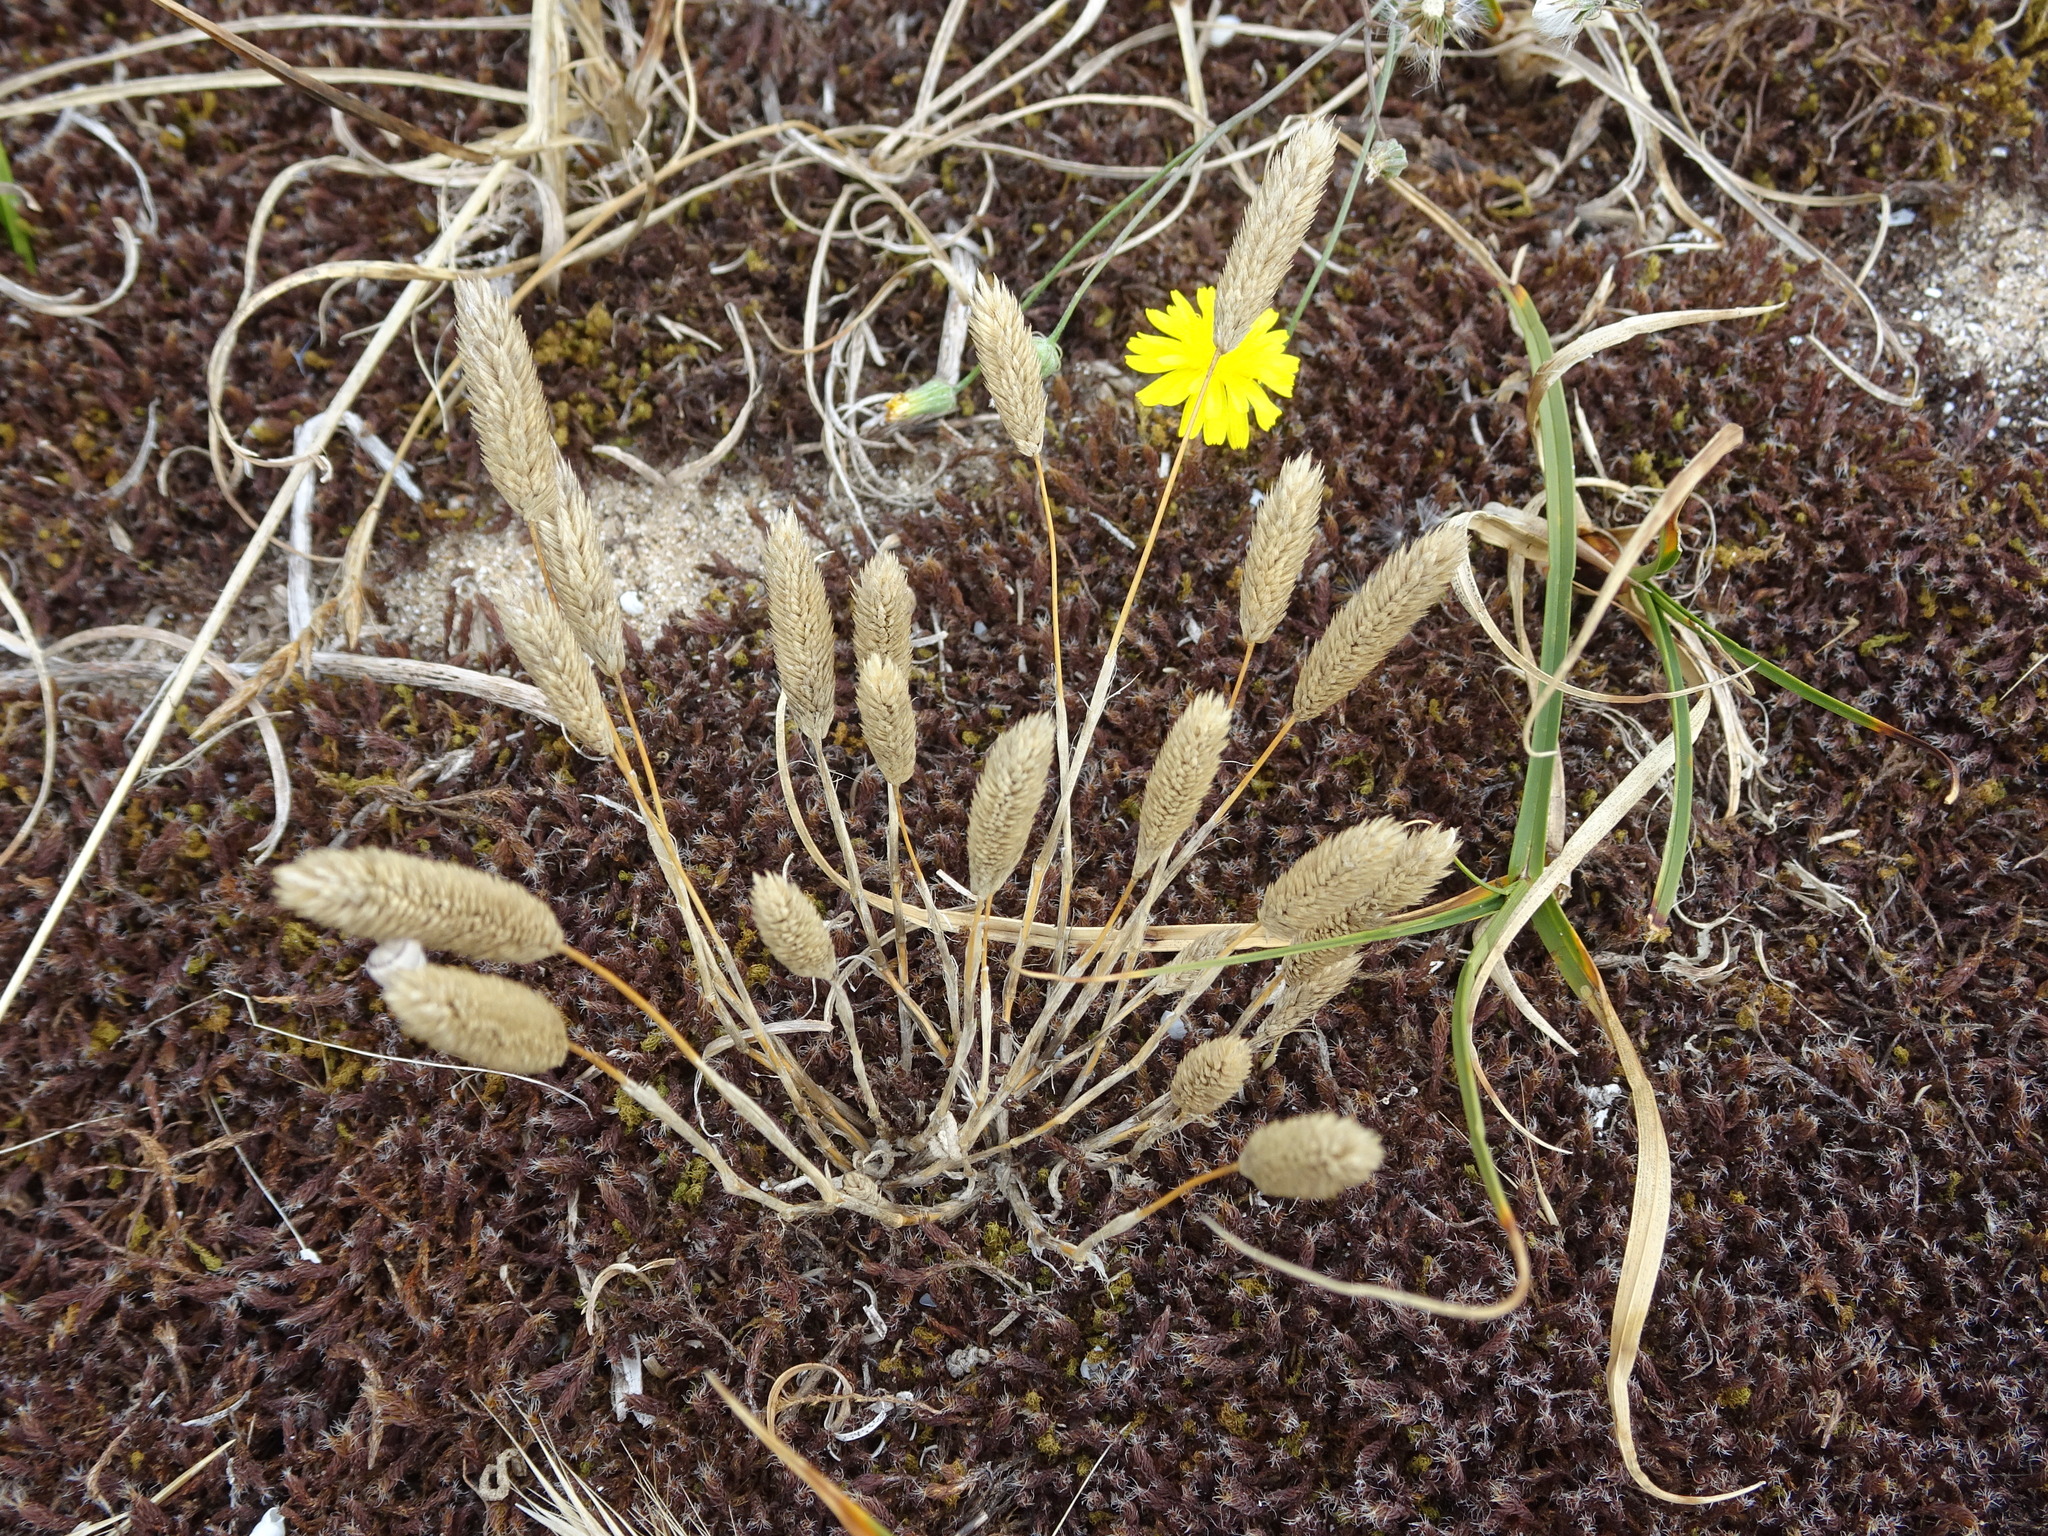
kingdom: Plantae
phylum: Tracheophyta
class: Liliopsida
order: Poales
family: Poaceae
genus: Phleum
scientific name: Phleum arenarium
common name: Sand cat's-tail
